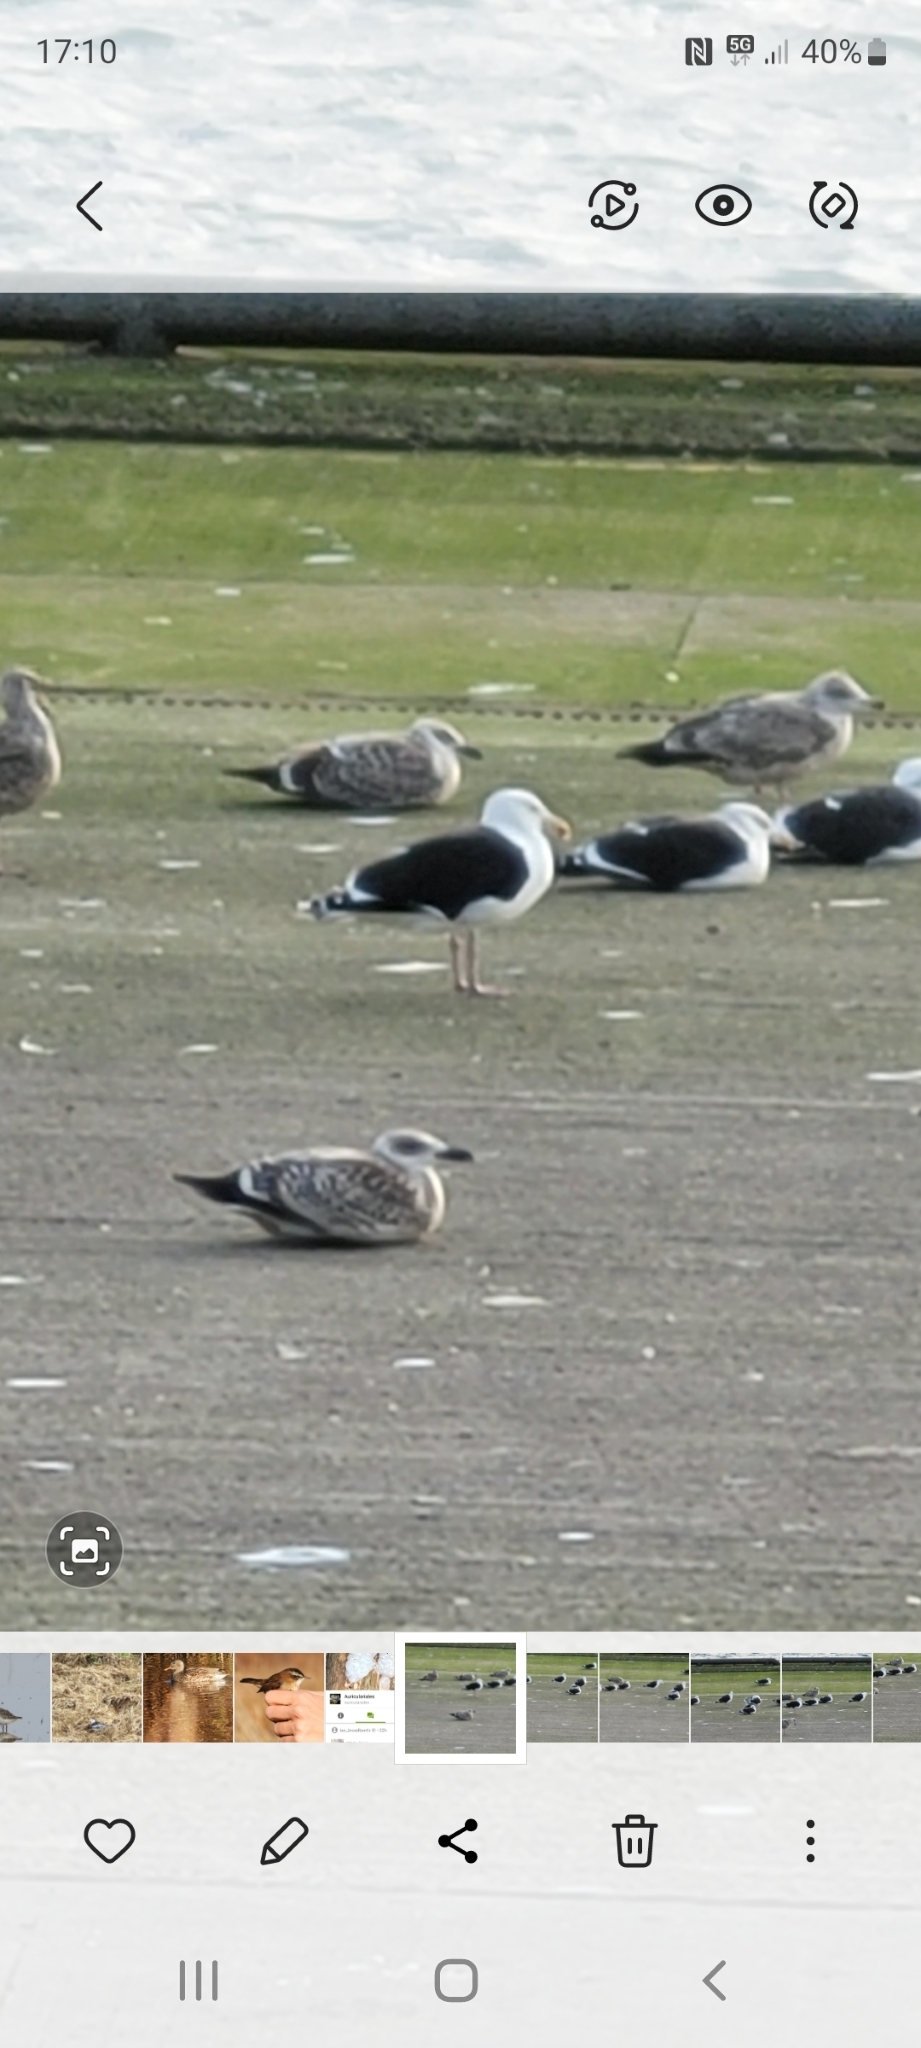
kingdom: Animalia
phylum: Chordata
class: Aves
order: Charadriiformes
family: Laridae
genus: Larus
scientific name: Larus marinus
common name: Great black-backed gull
